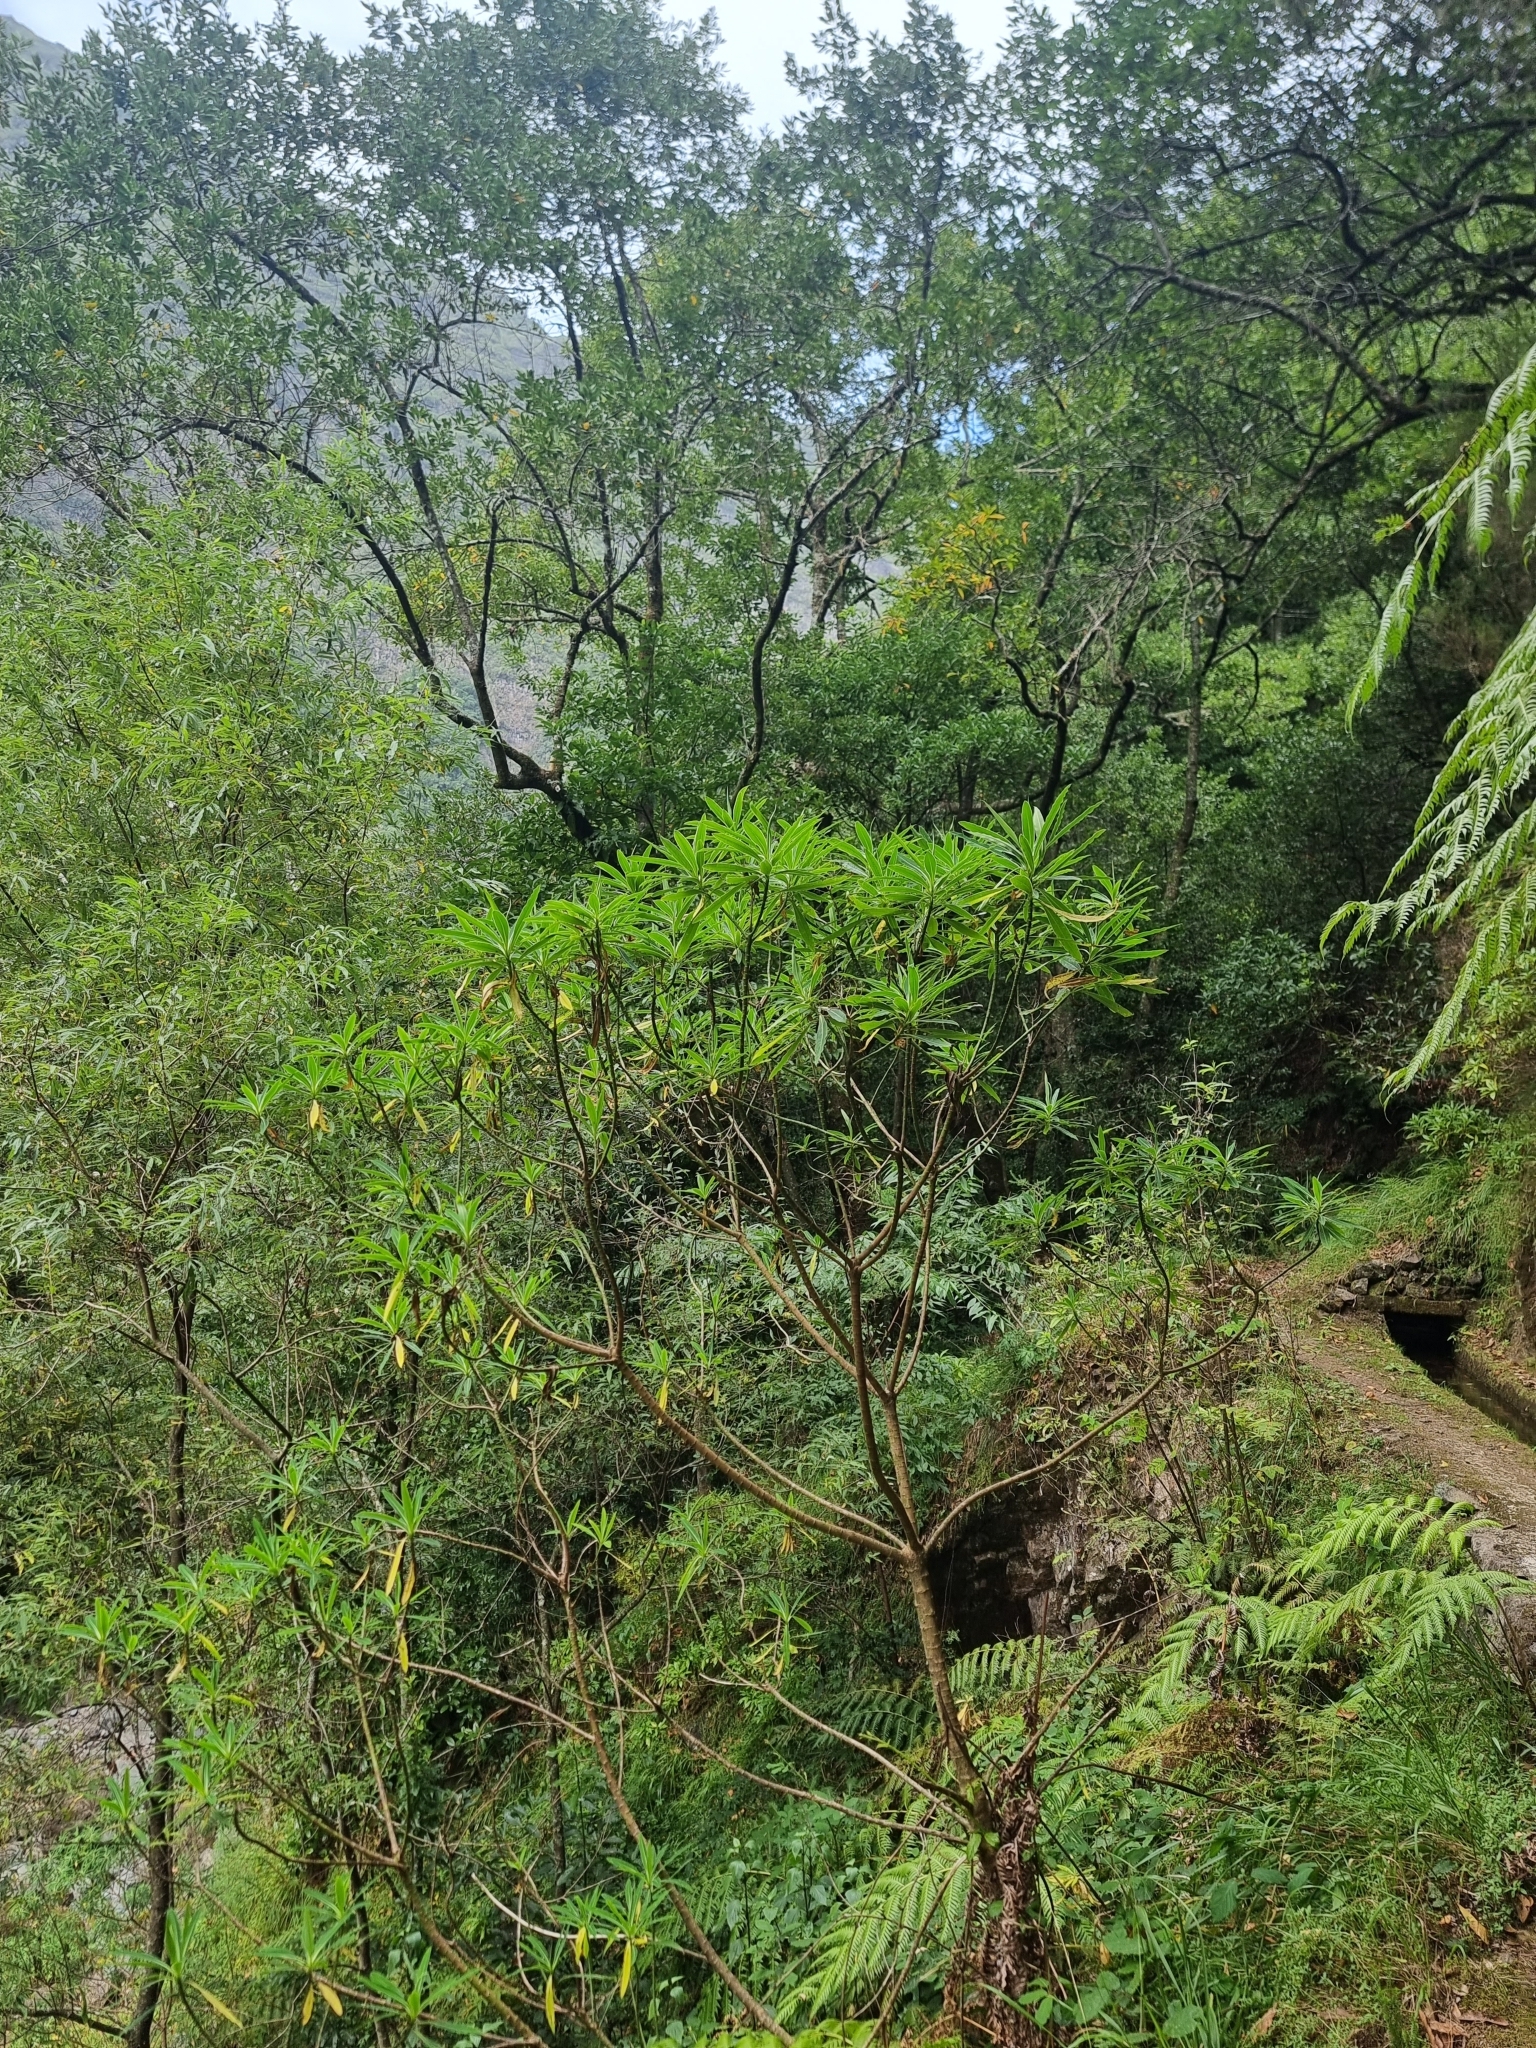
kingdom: Plantae
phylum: Tracheophyta
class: Magnoliopsida
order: Malpighiales
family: Euphorbiaceae
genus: Euphorbia
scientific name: Euphorbia mellifera
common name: Canary spurge
